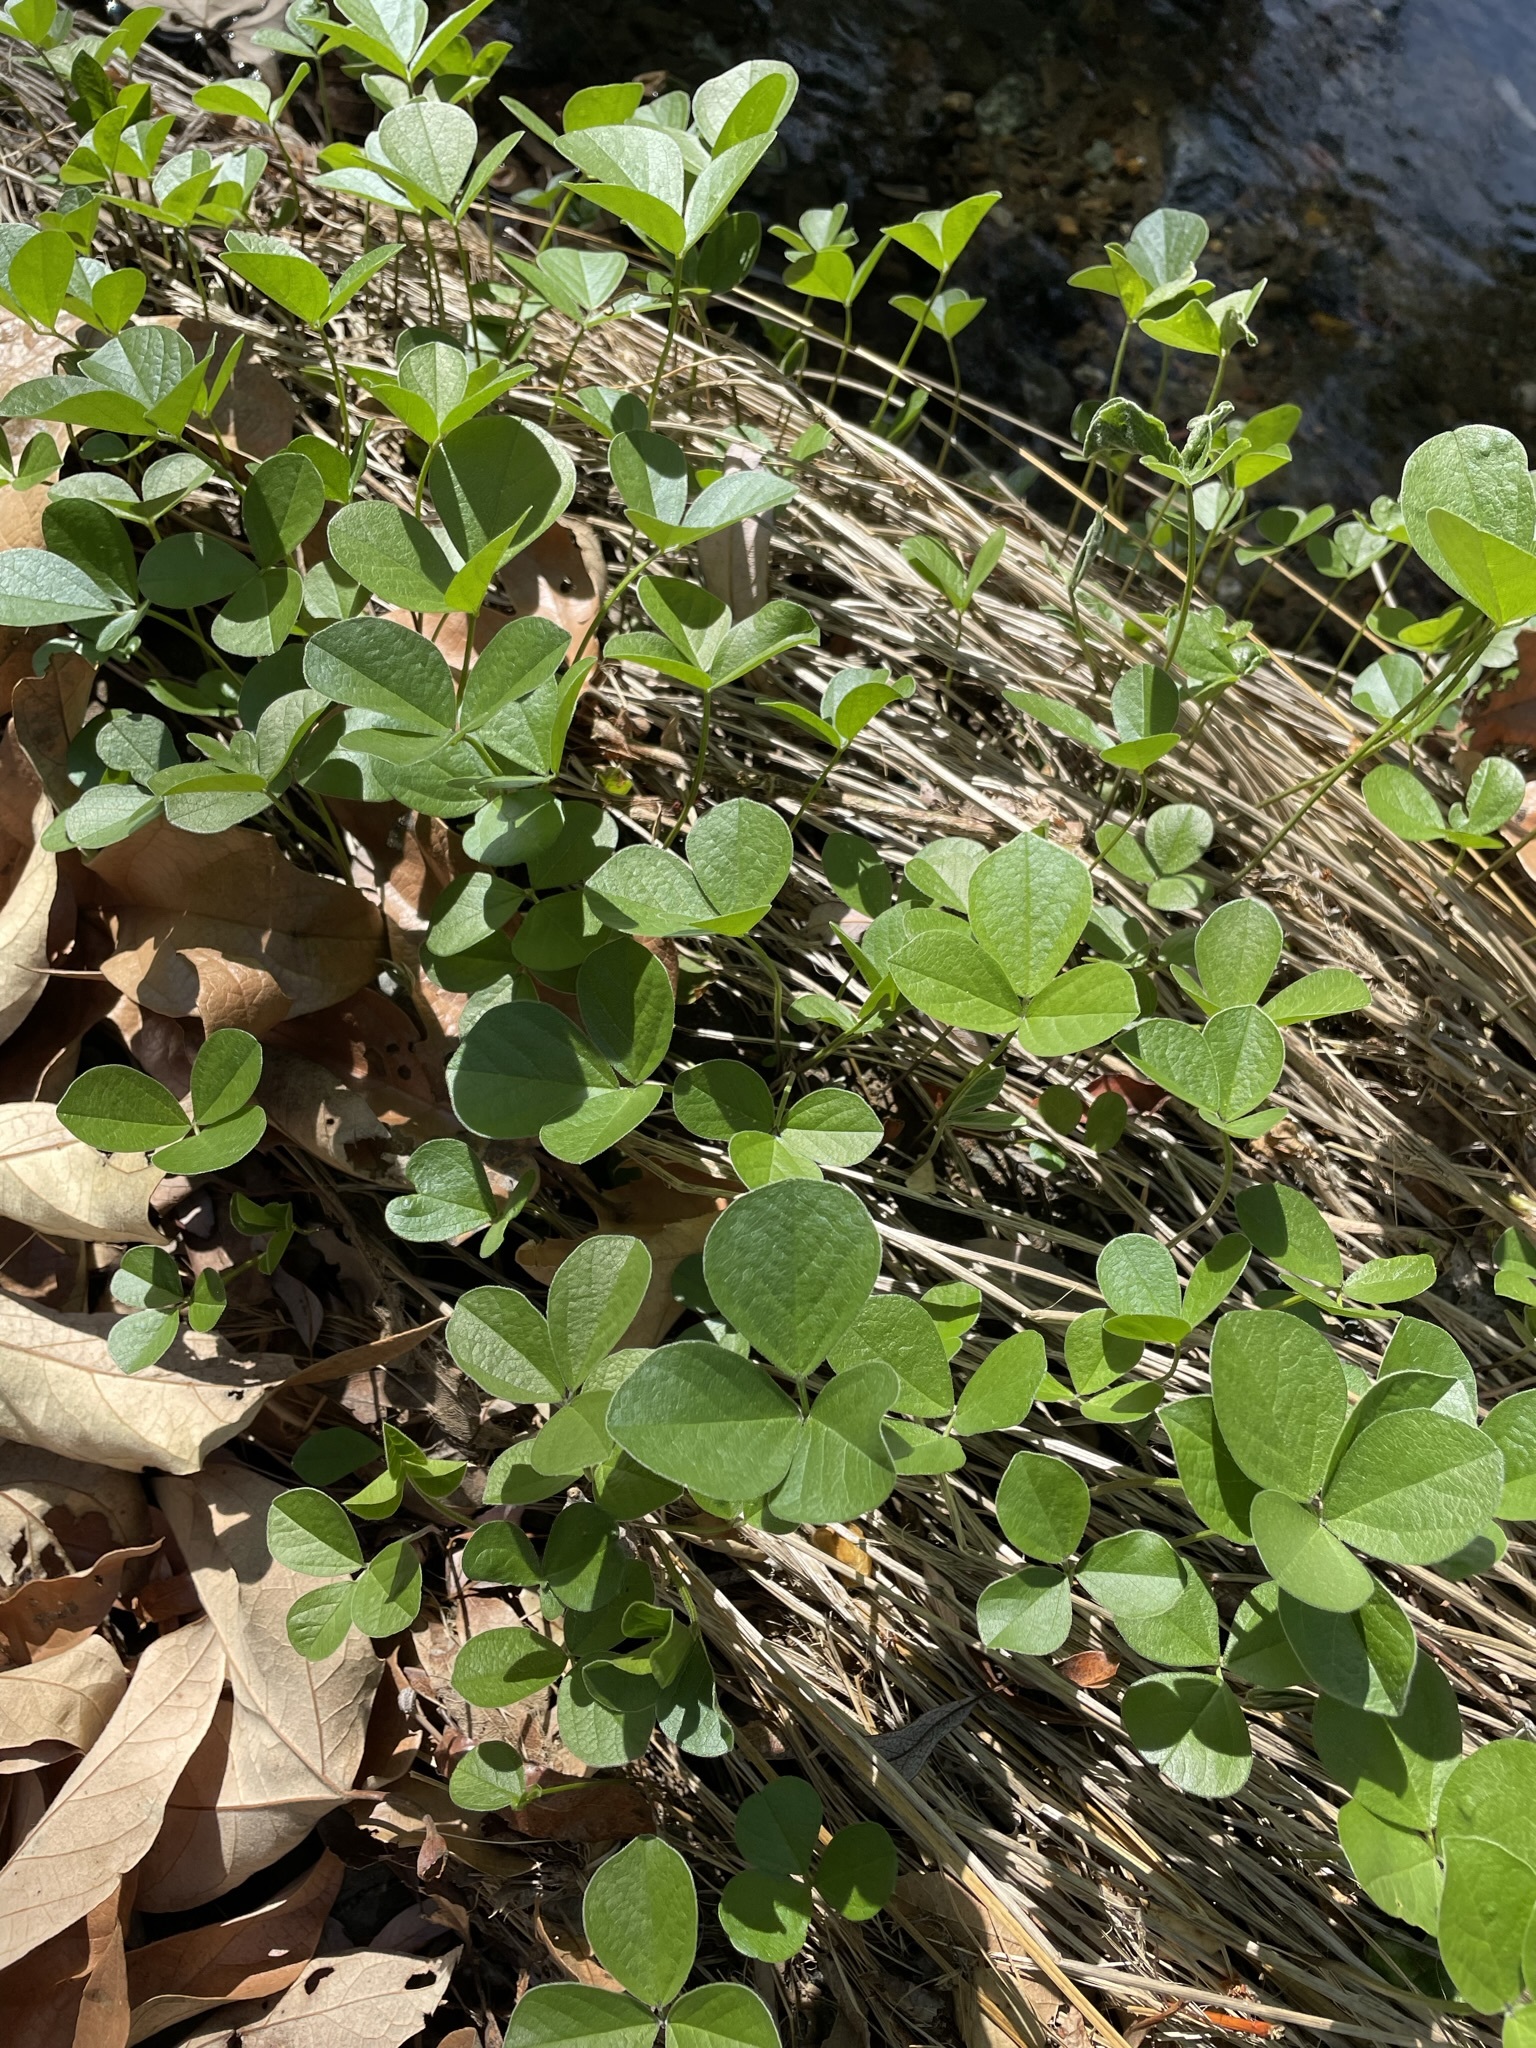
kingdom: Plantae
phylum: Tracheophyta
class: Magnoliopsida
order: Fabales
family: Fabaceae
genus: Hoita
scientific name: Hoita orbicularis
